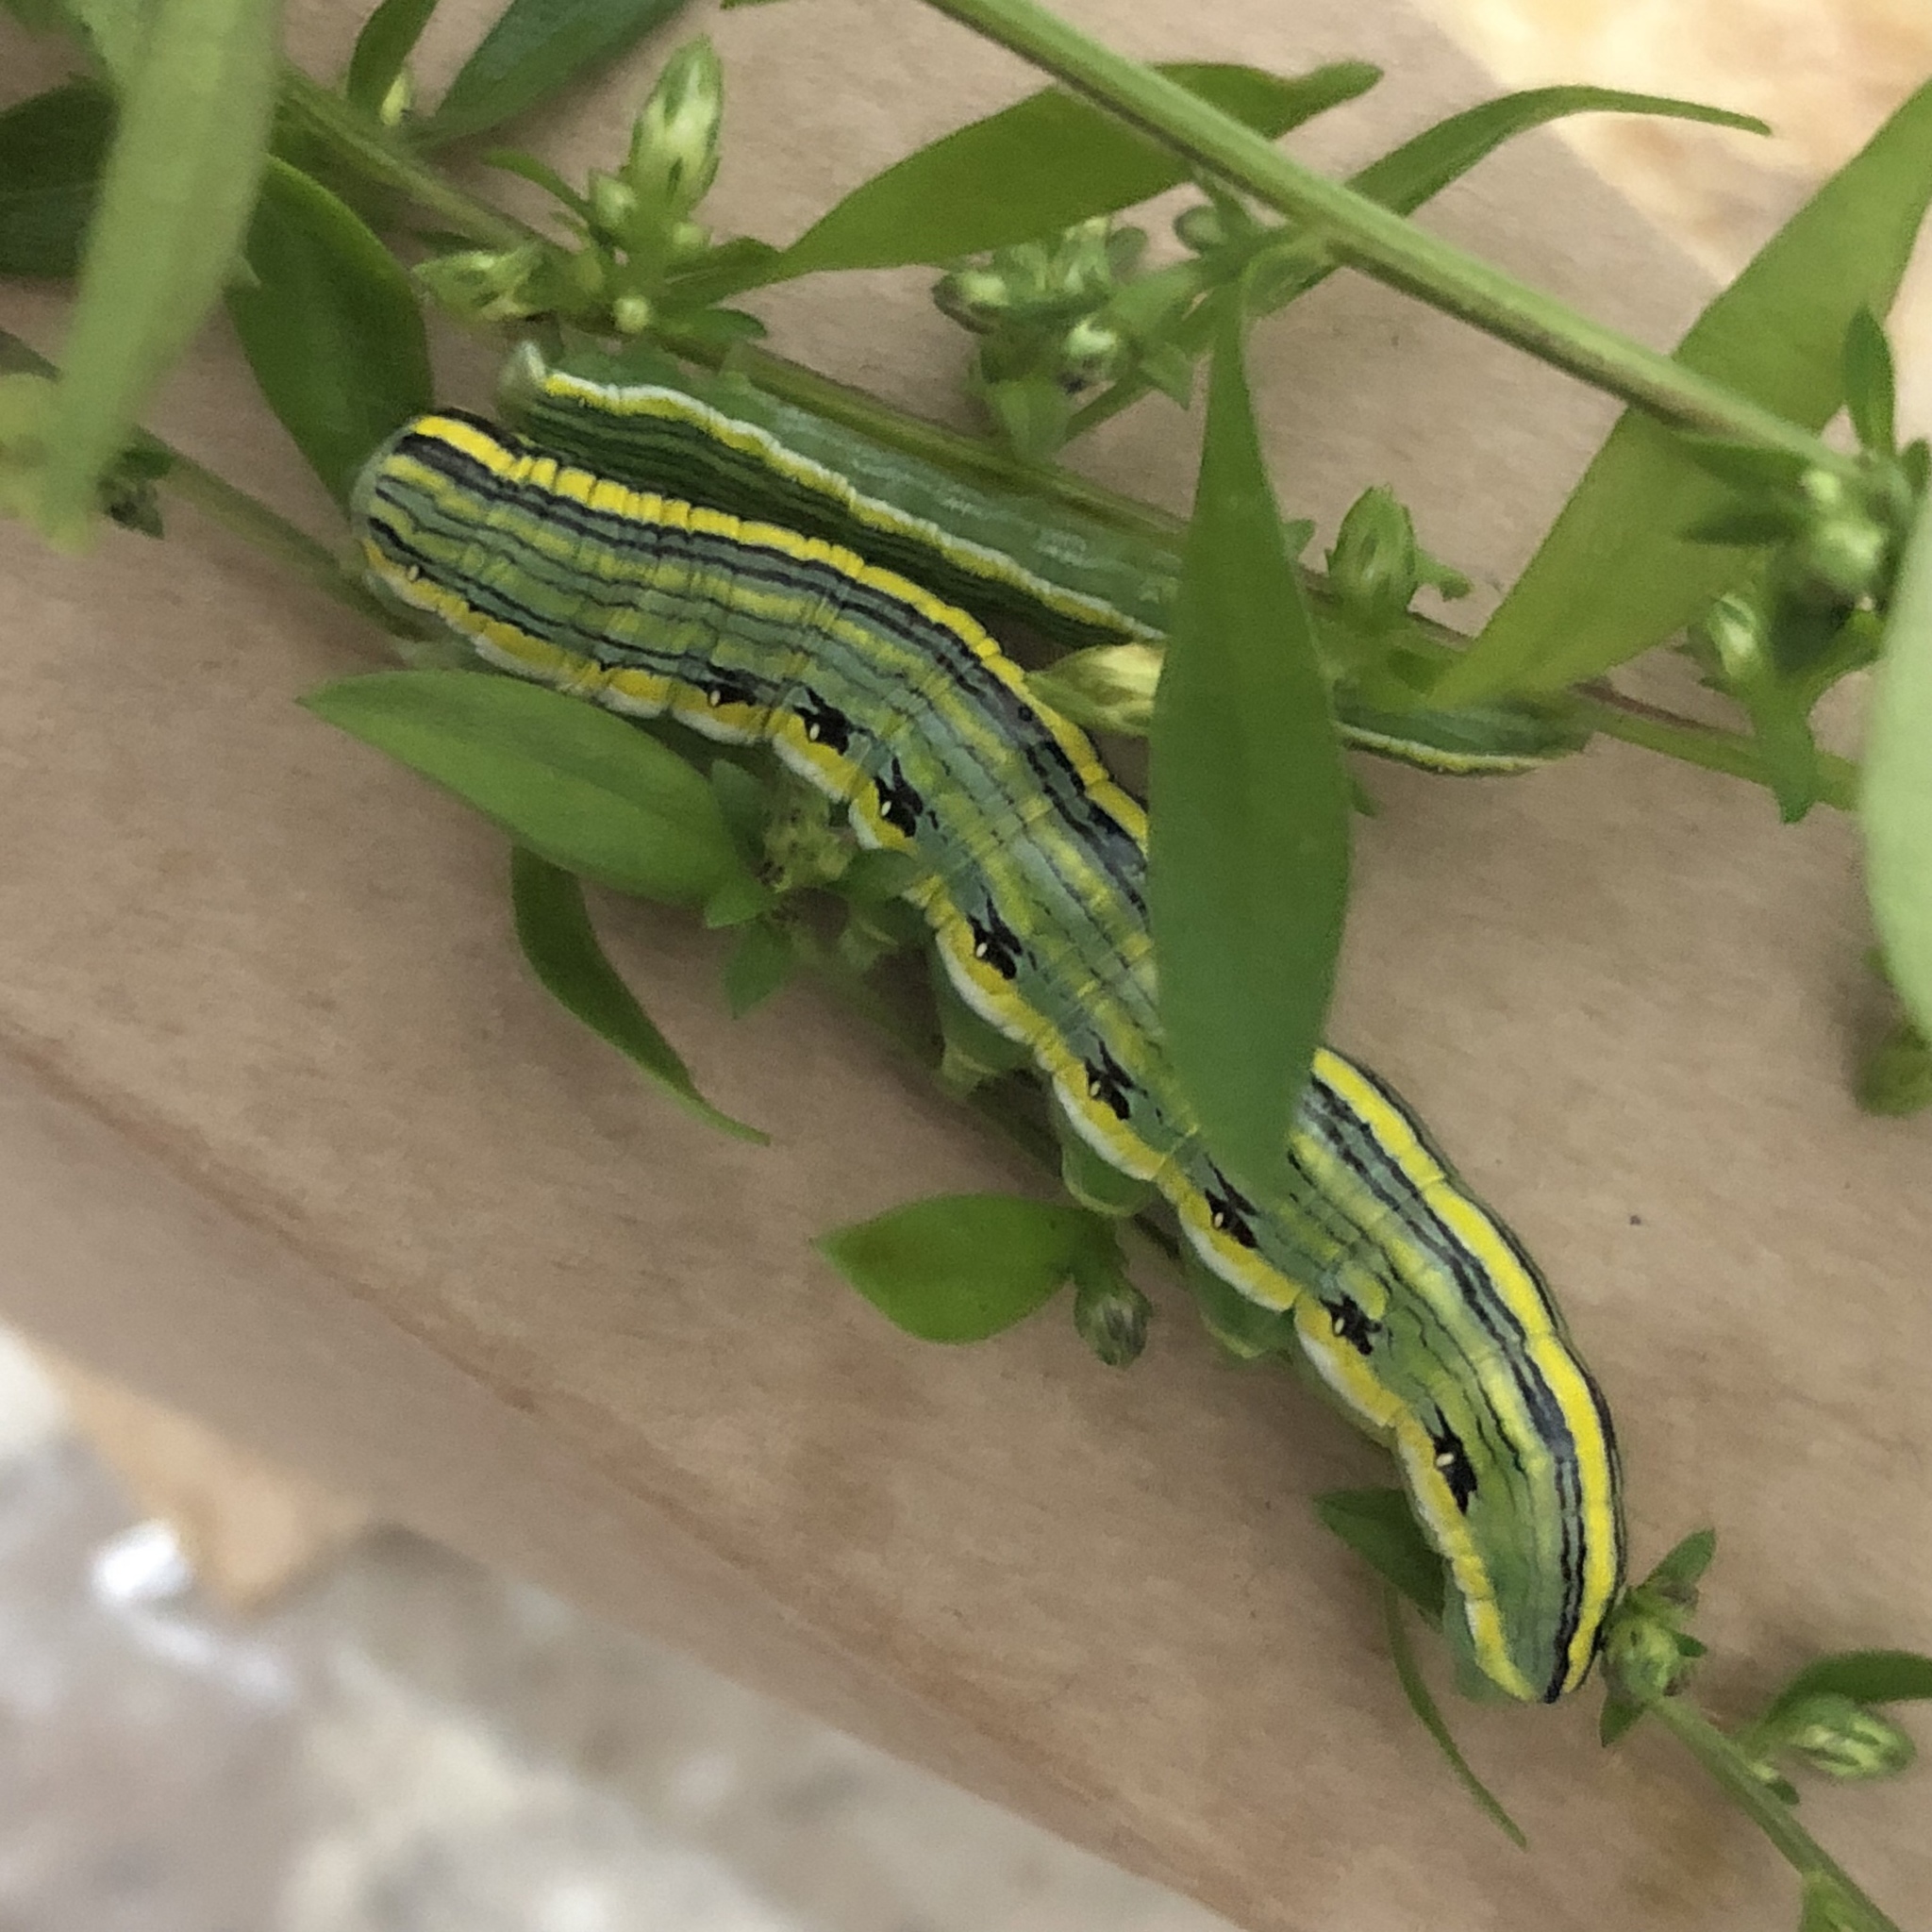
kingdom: Animalia
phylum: Arthropoda
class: Insecta
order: Lepidoptera
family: Noctuidae
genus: Cucullia
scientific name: Cucullia asteroides
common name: Asteroid moth
